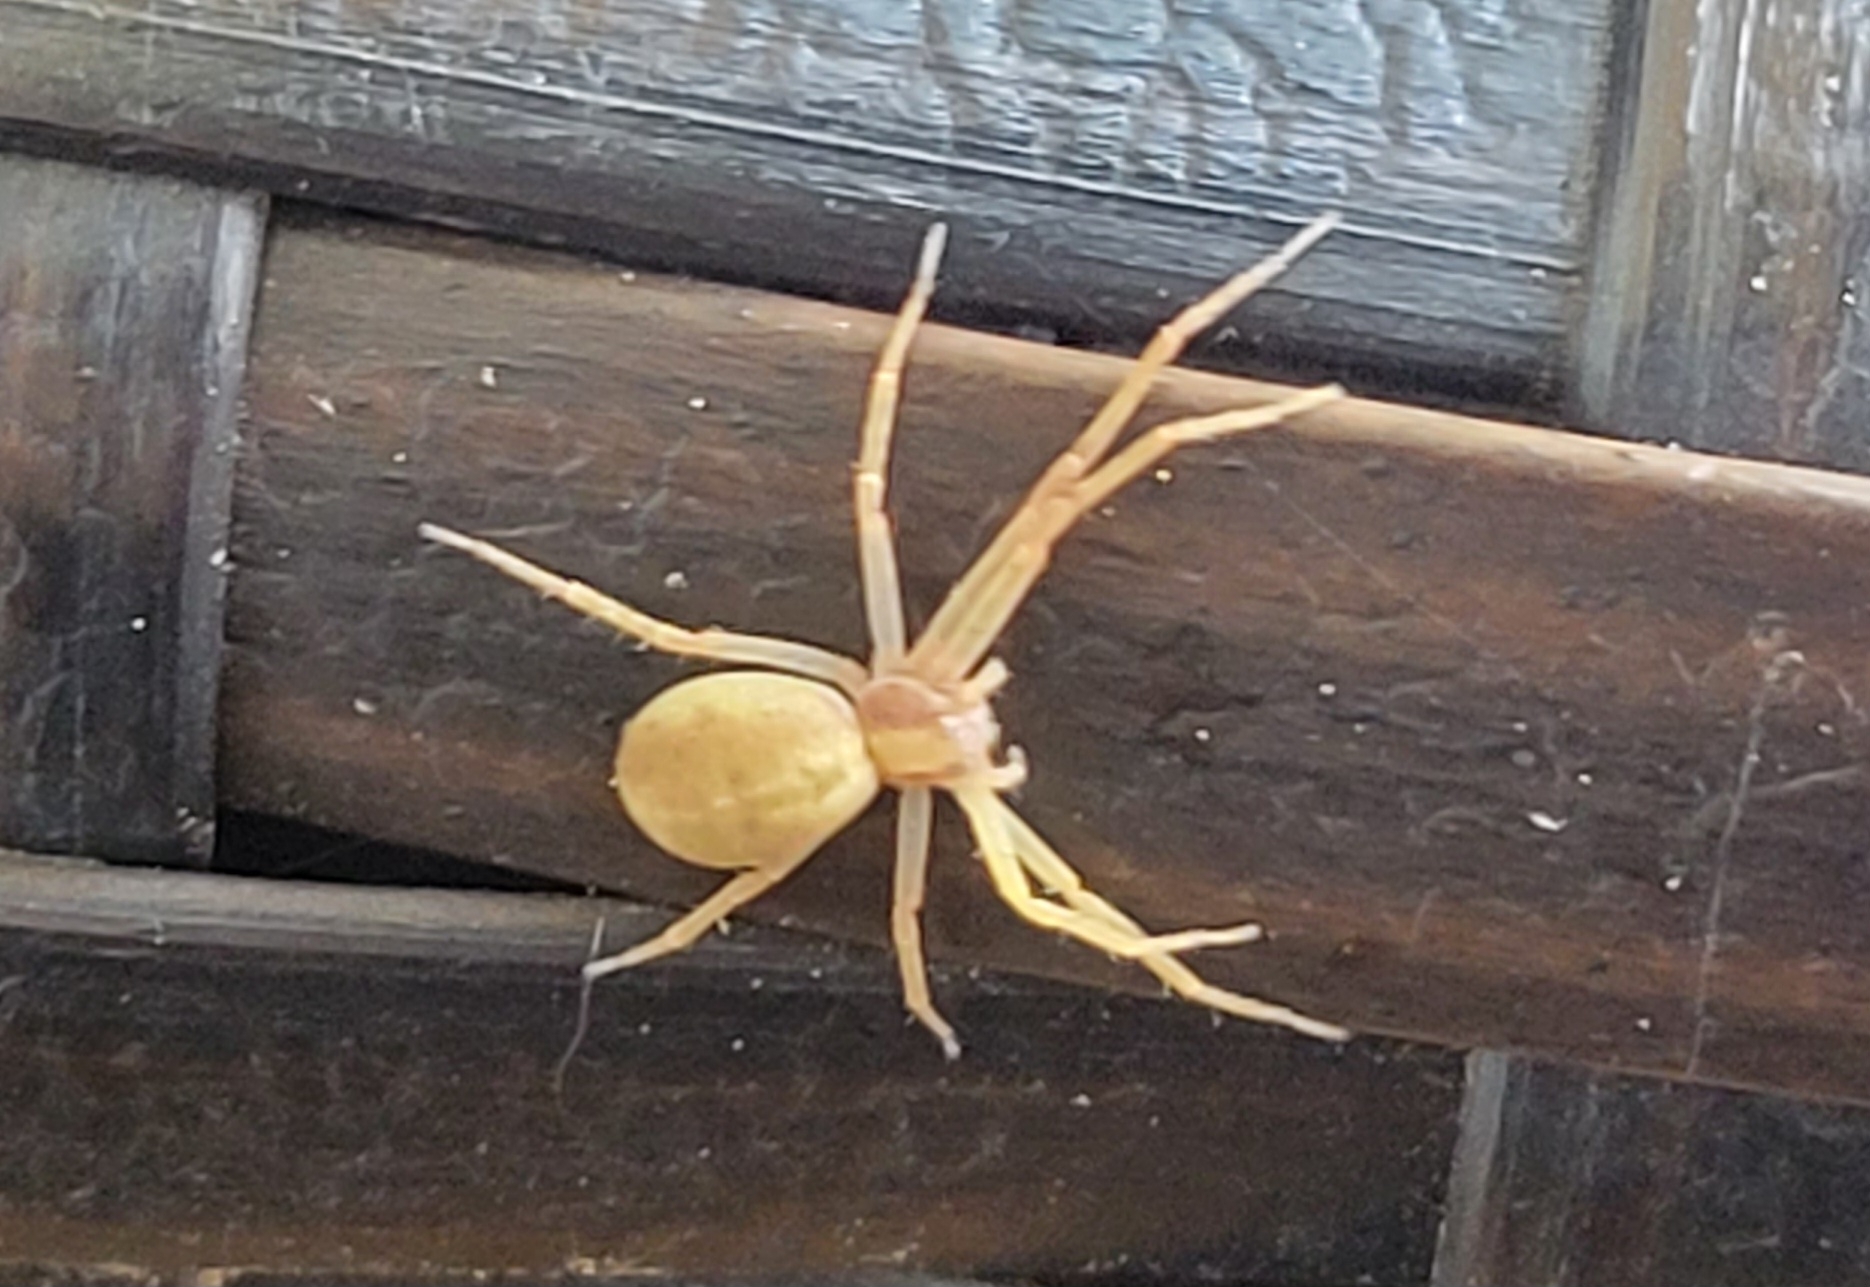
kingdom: Animalia
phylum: Arthropoda
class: Arachnida
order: Araneae
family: Philodromidae
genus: Philodromus
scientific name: Philodromus rufus
